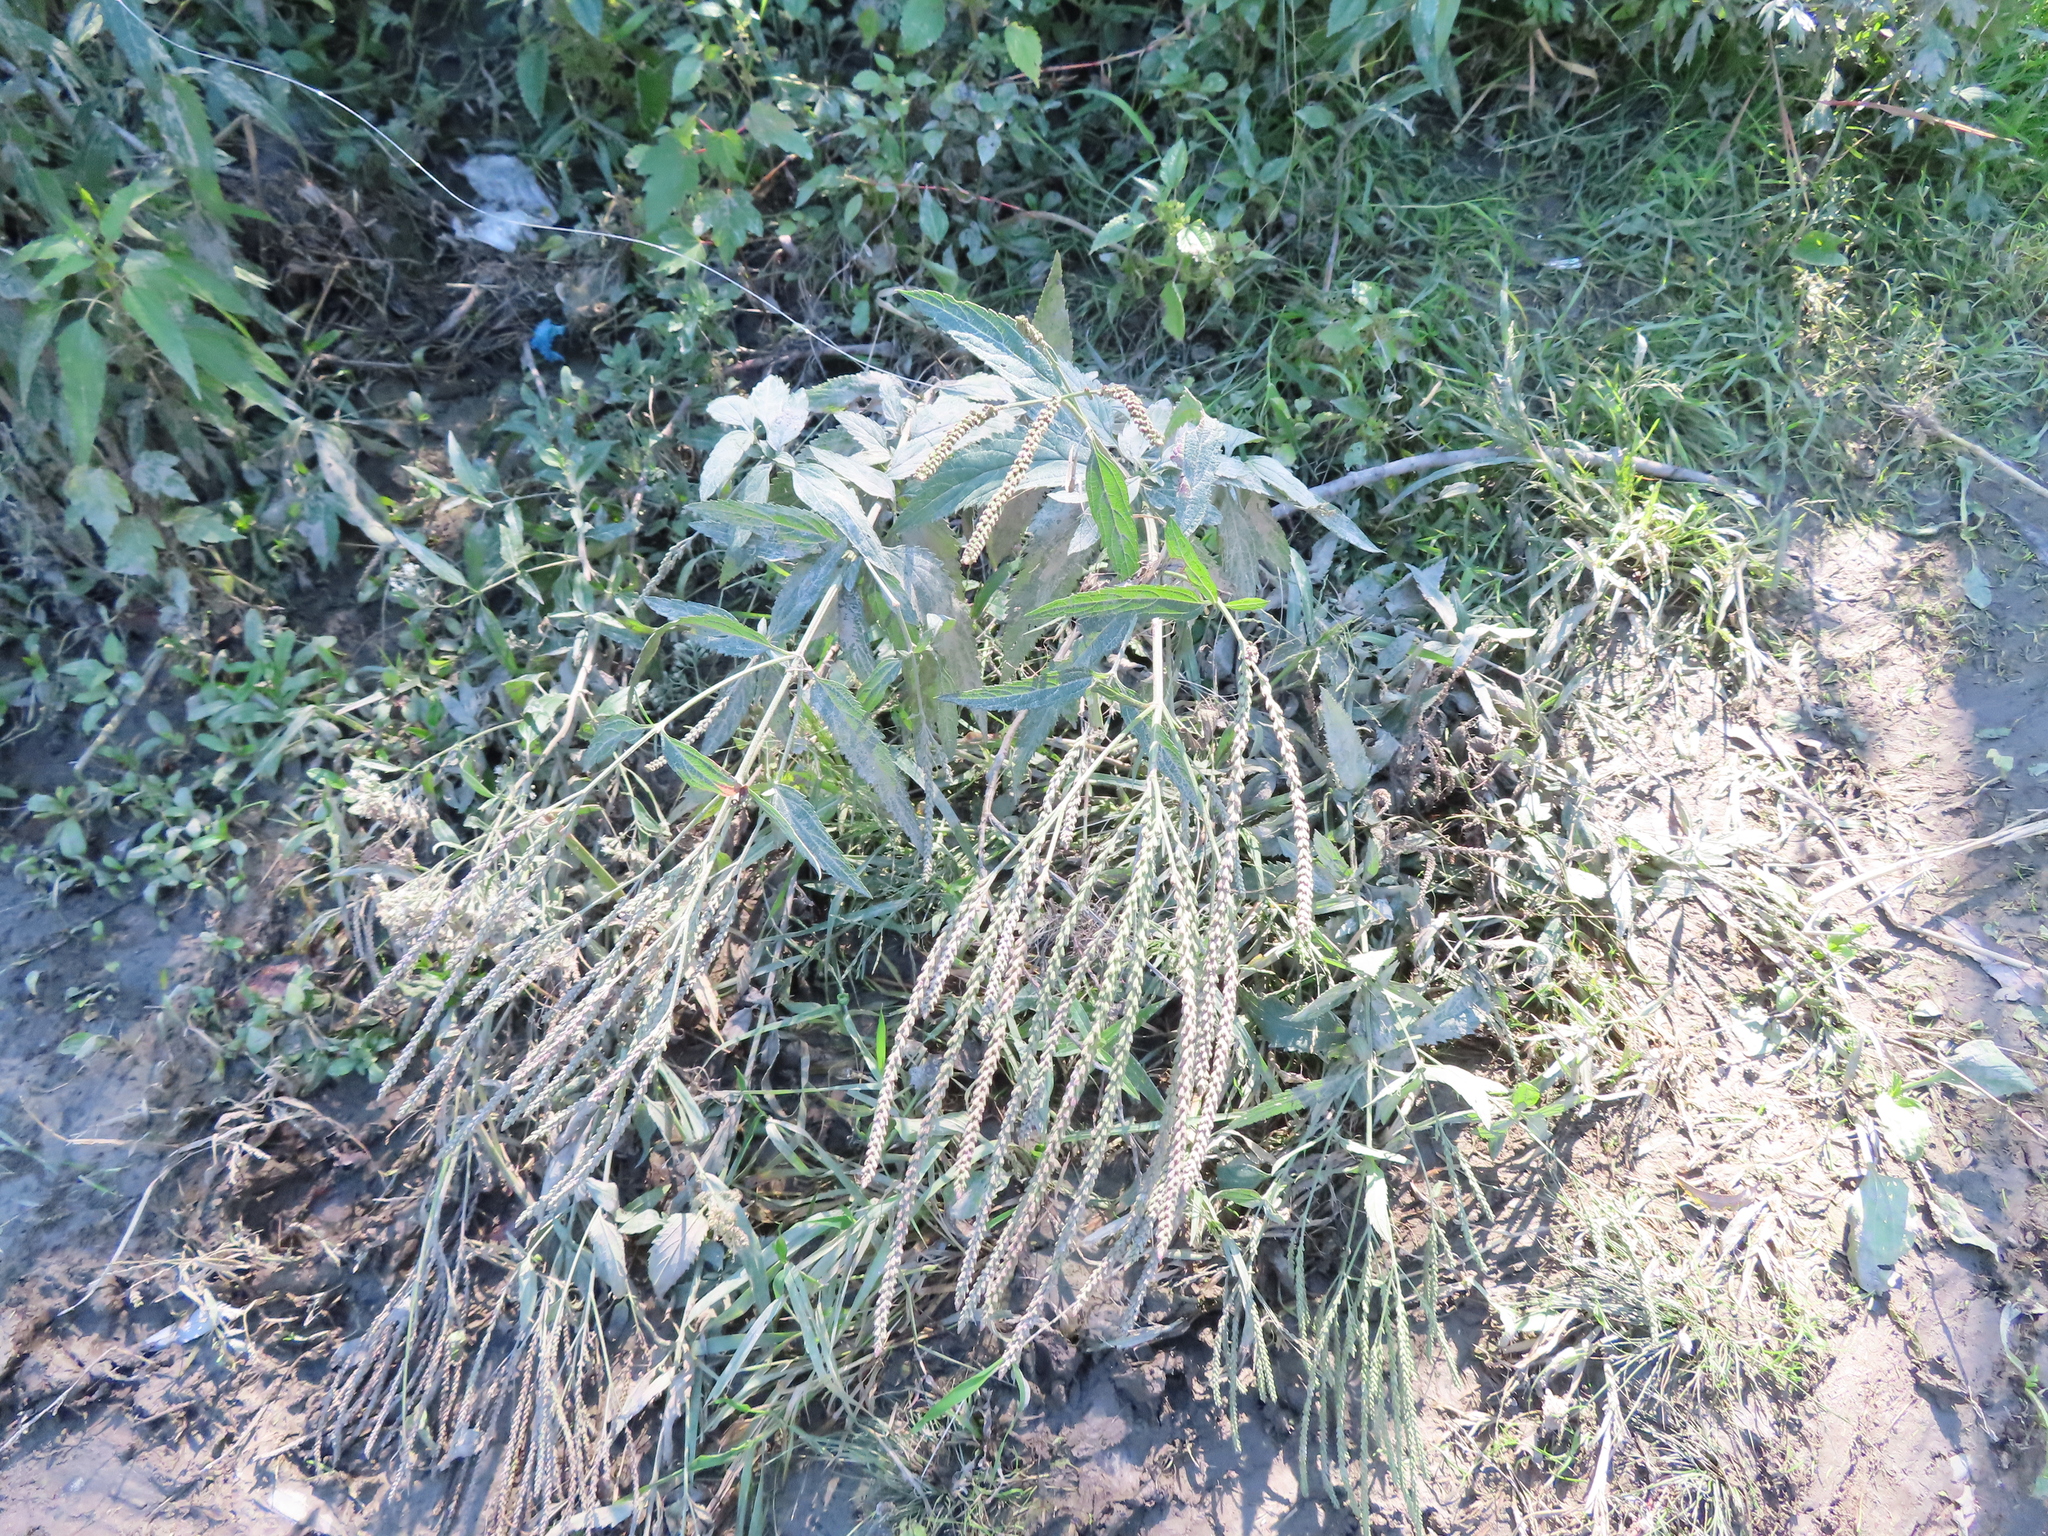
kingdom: Plantae
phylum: Tracheophyta
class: Magnoliopsida
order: Lamiales
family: Verbenaceae
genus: Verbena
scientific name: Verbena hastata
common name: American blue vervain
